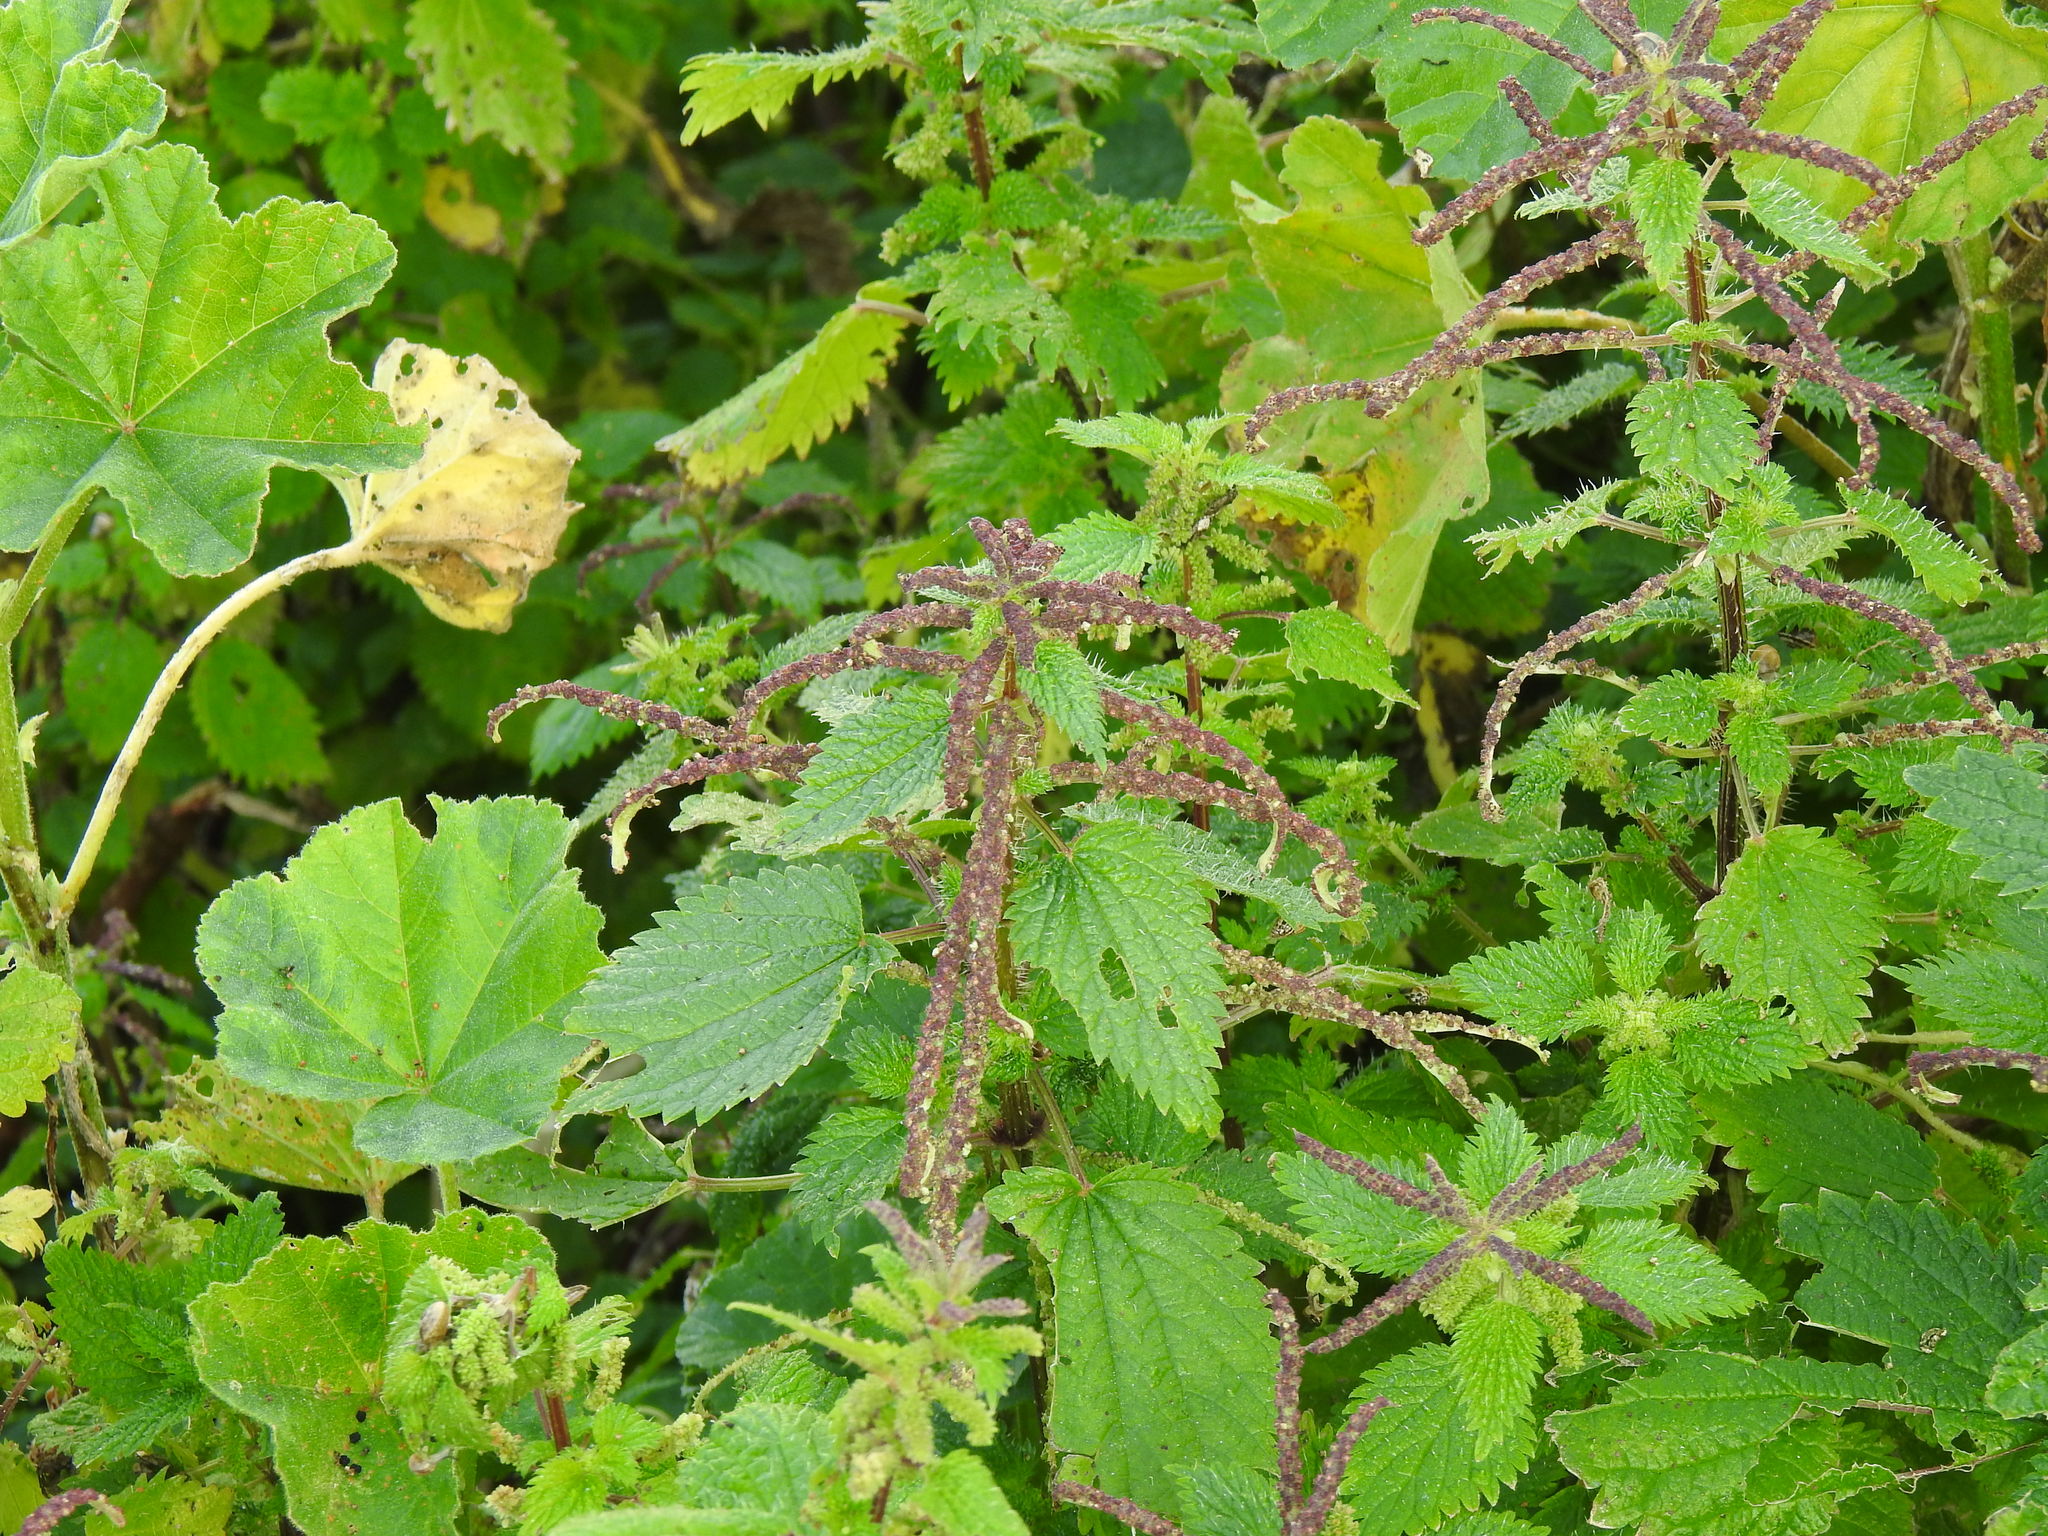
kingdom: Plantae
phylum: Tracheophyta
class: Magnoliopsida
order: Rosales
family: Urticaceae
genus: Urtica
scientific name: Urtica membranacea
